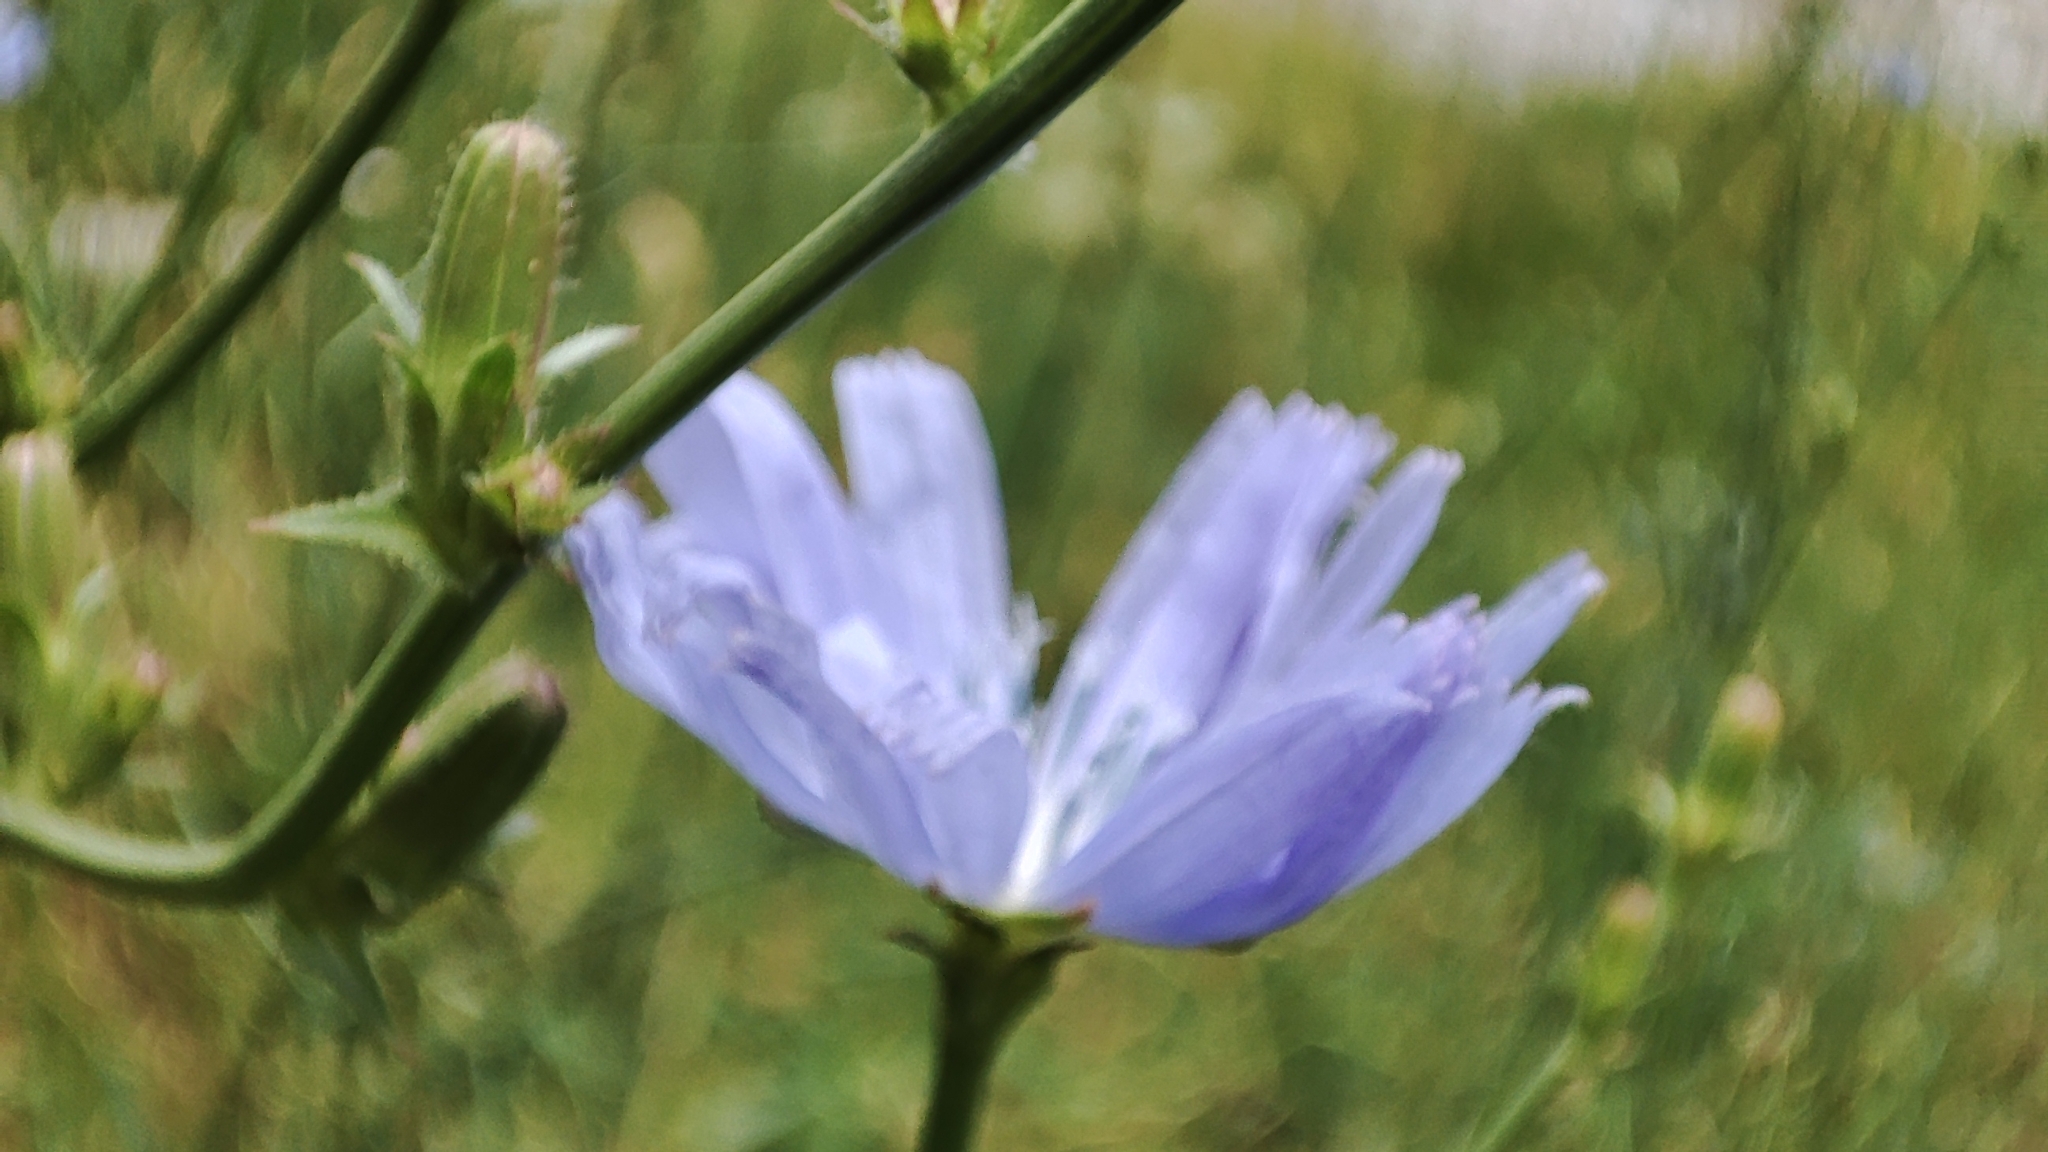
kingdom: Plantae
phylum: Tracheophyta
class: Magnoliopsida
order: Asterales
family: Asteraceae
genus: Cichorium
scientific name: Cichorium intybus
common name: Chicory
